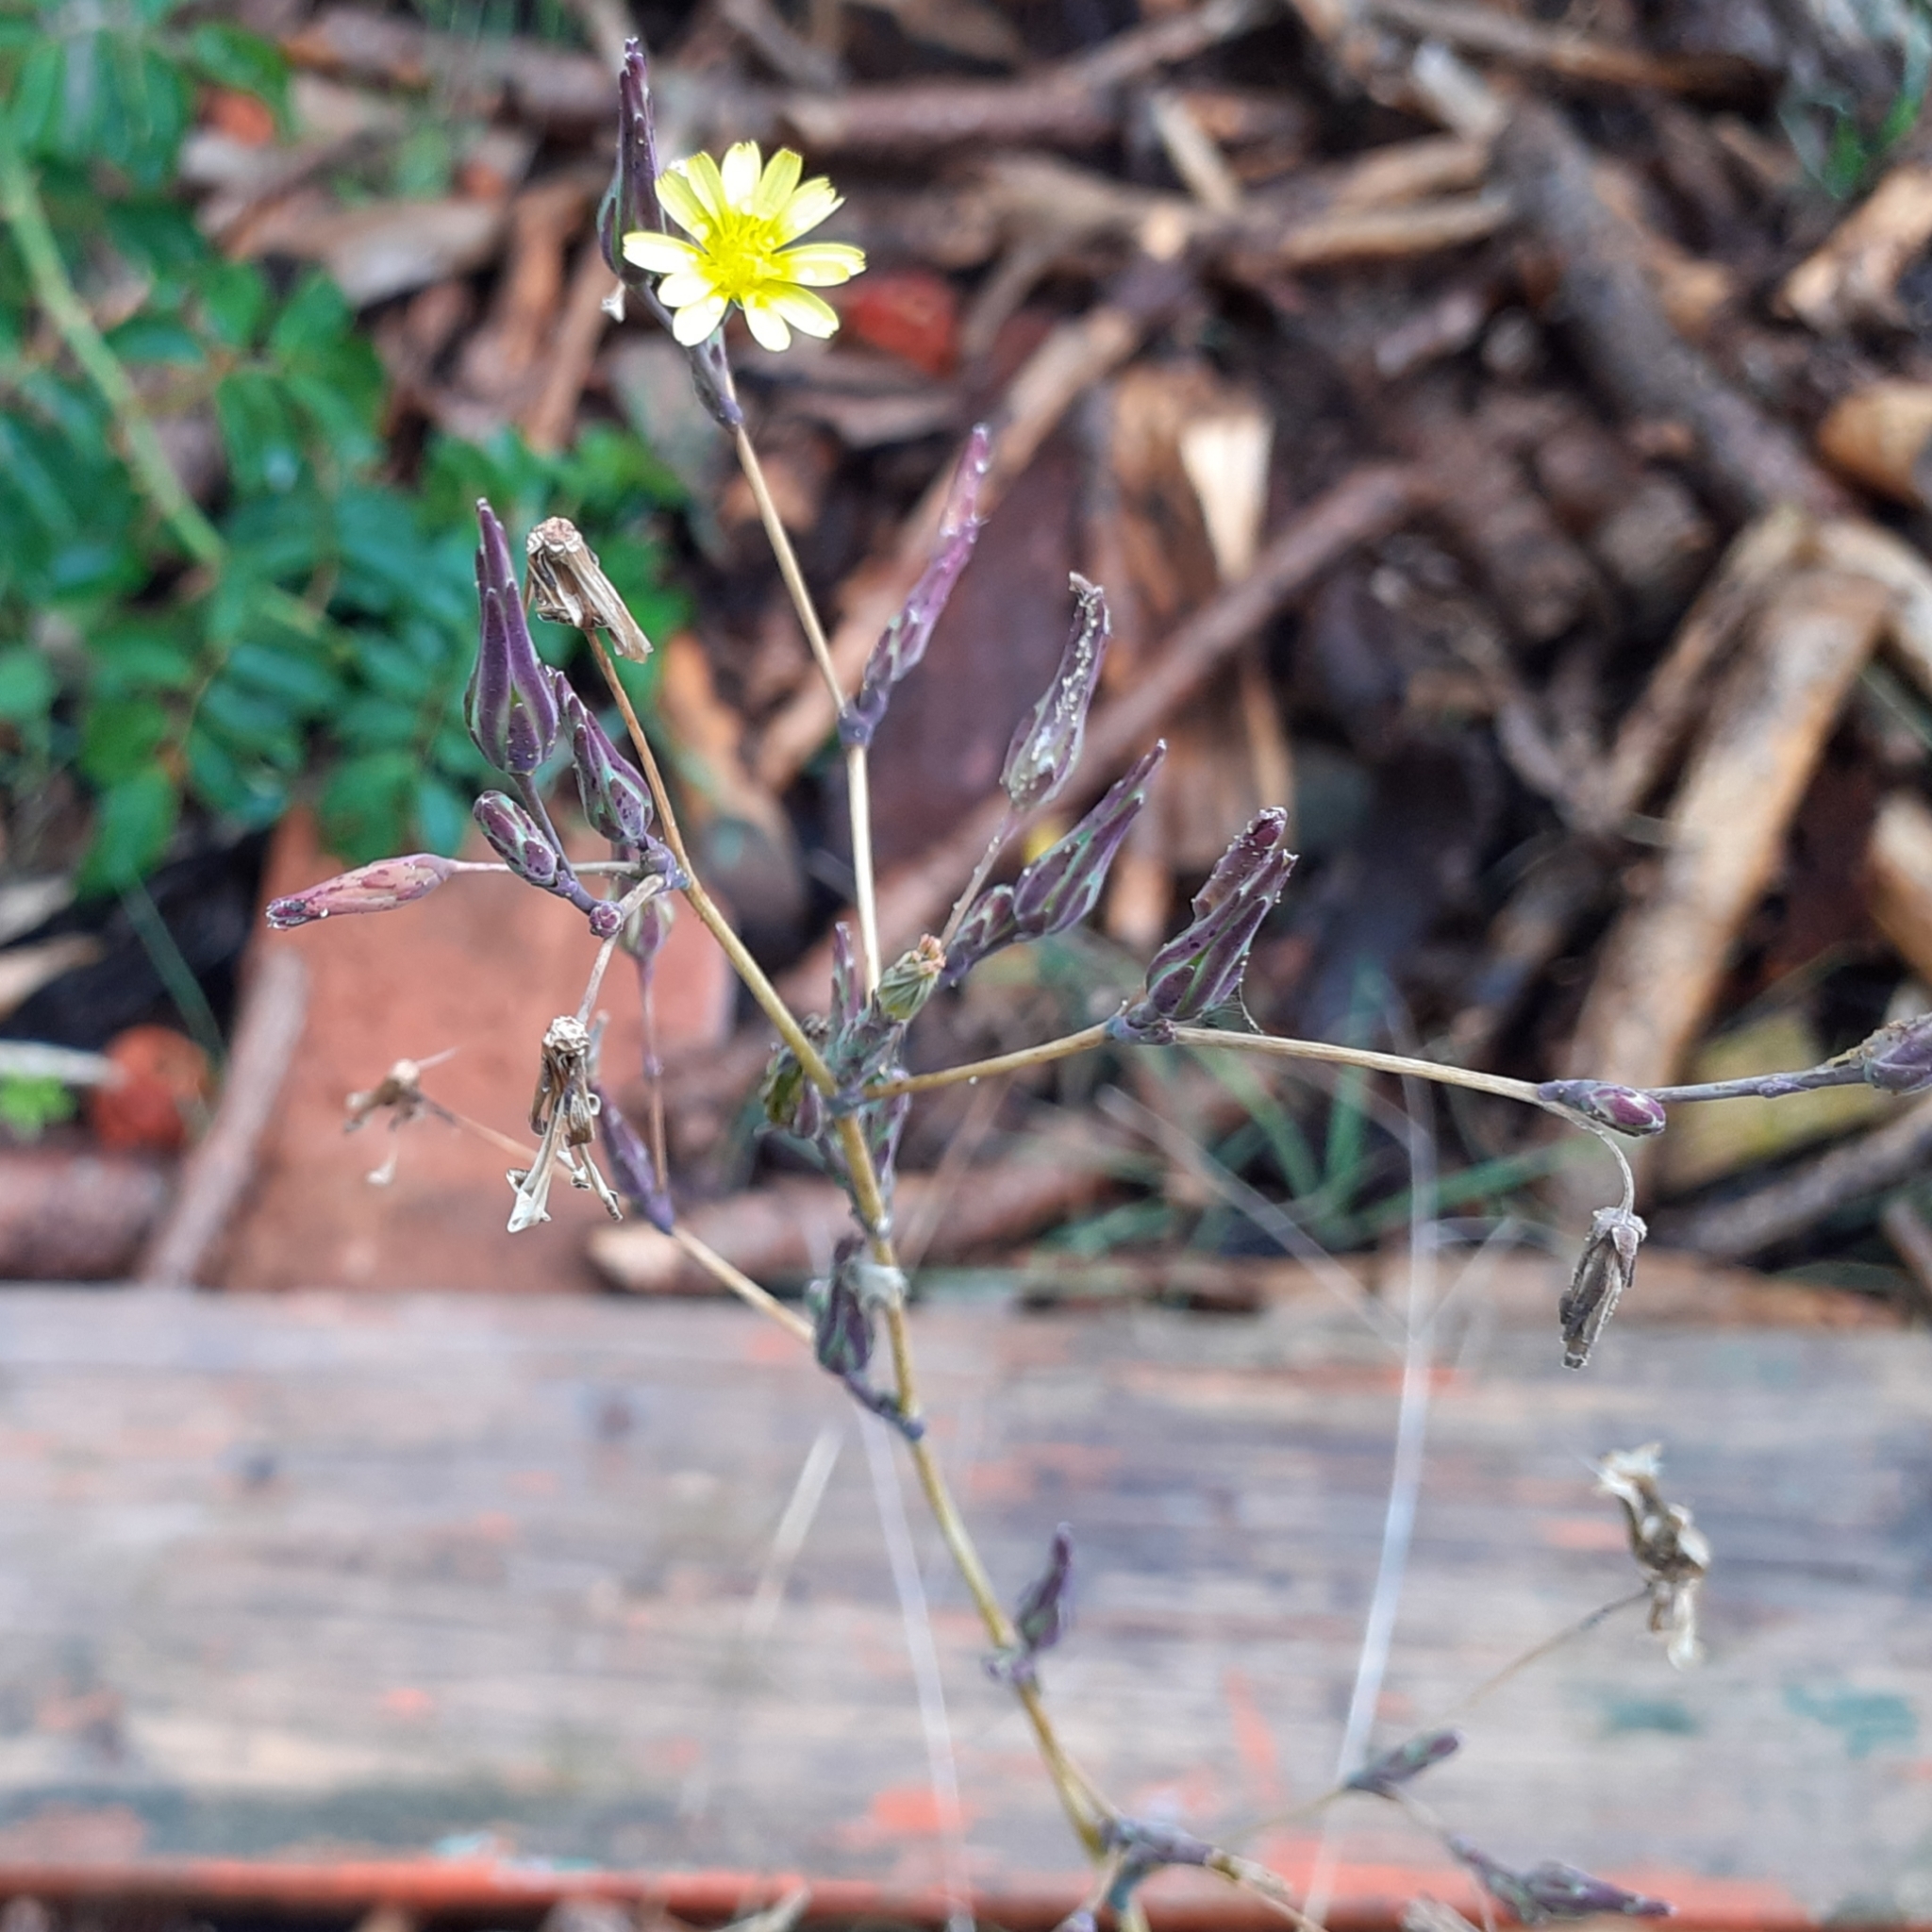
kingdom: Plantae
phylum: Tracheophyta
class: Magnoliopsida
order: Asterales
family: Asteraceae
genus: Lactuca
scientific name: Lactuca serriola
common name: Prickly lettuce
